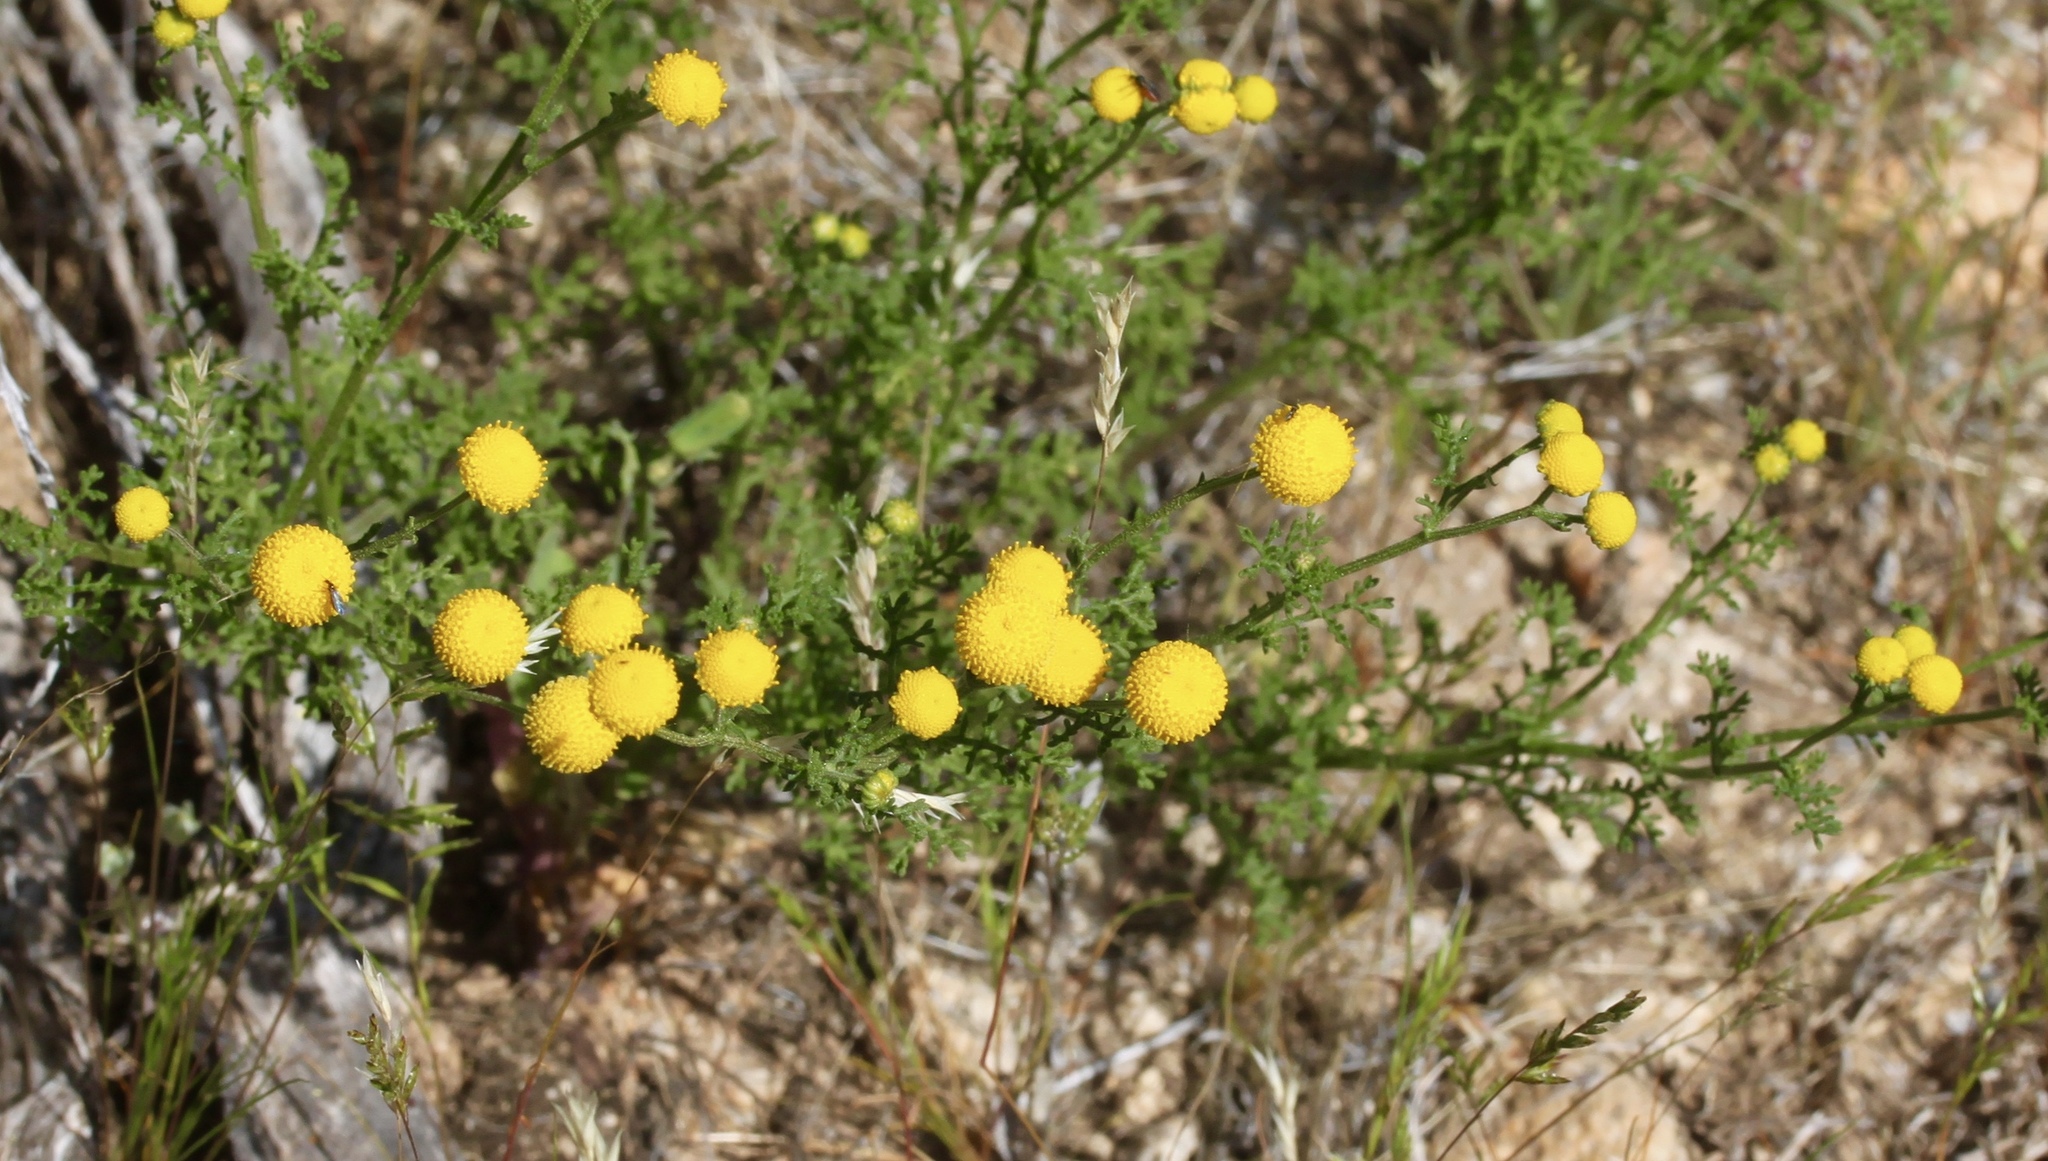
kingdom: Plantae
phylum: Tracheophyta
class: Magnoliopsida
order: Asterales
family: Asteraceae
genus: Oncosiphon
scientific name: Oncosiphon pilulifer
